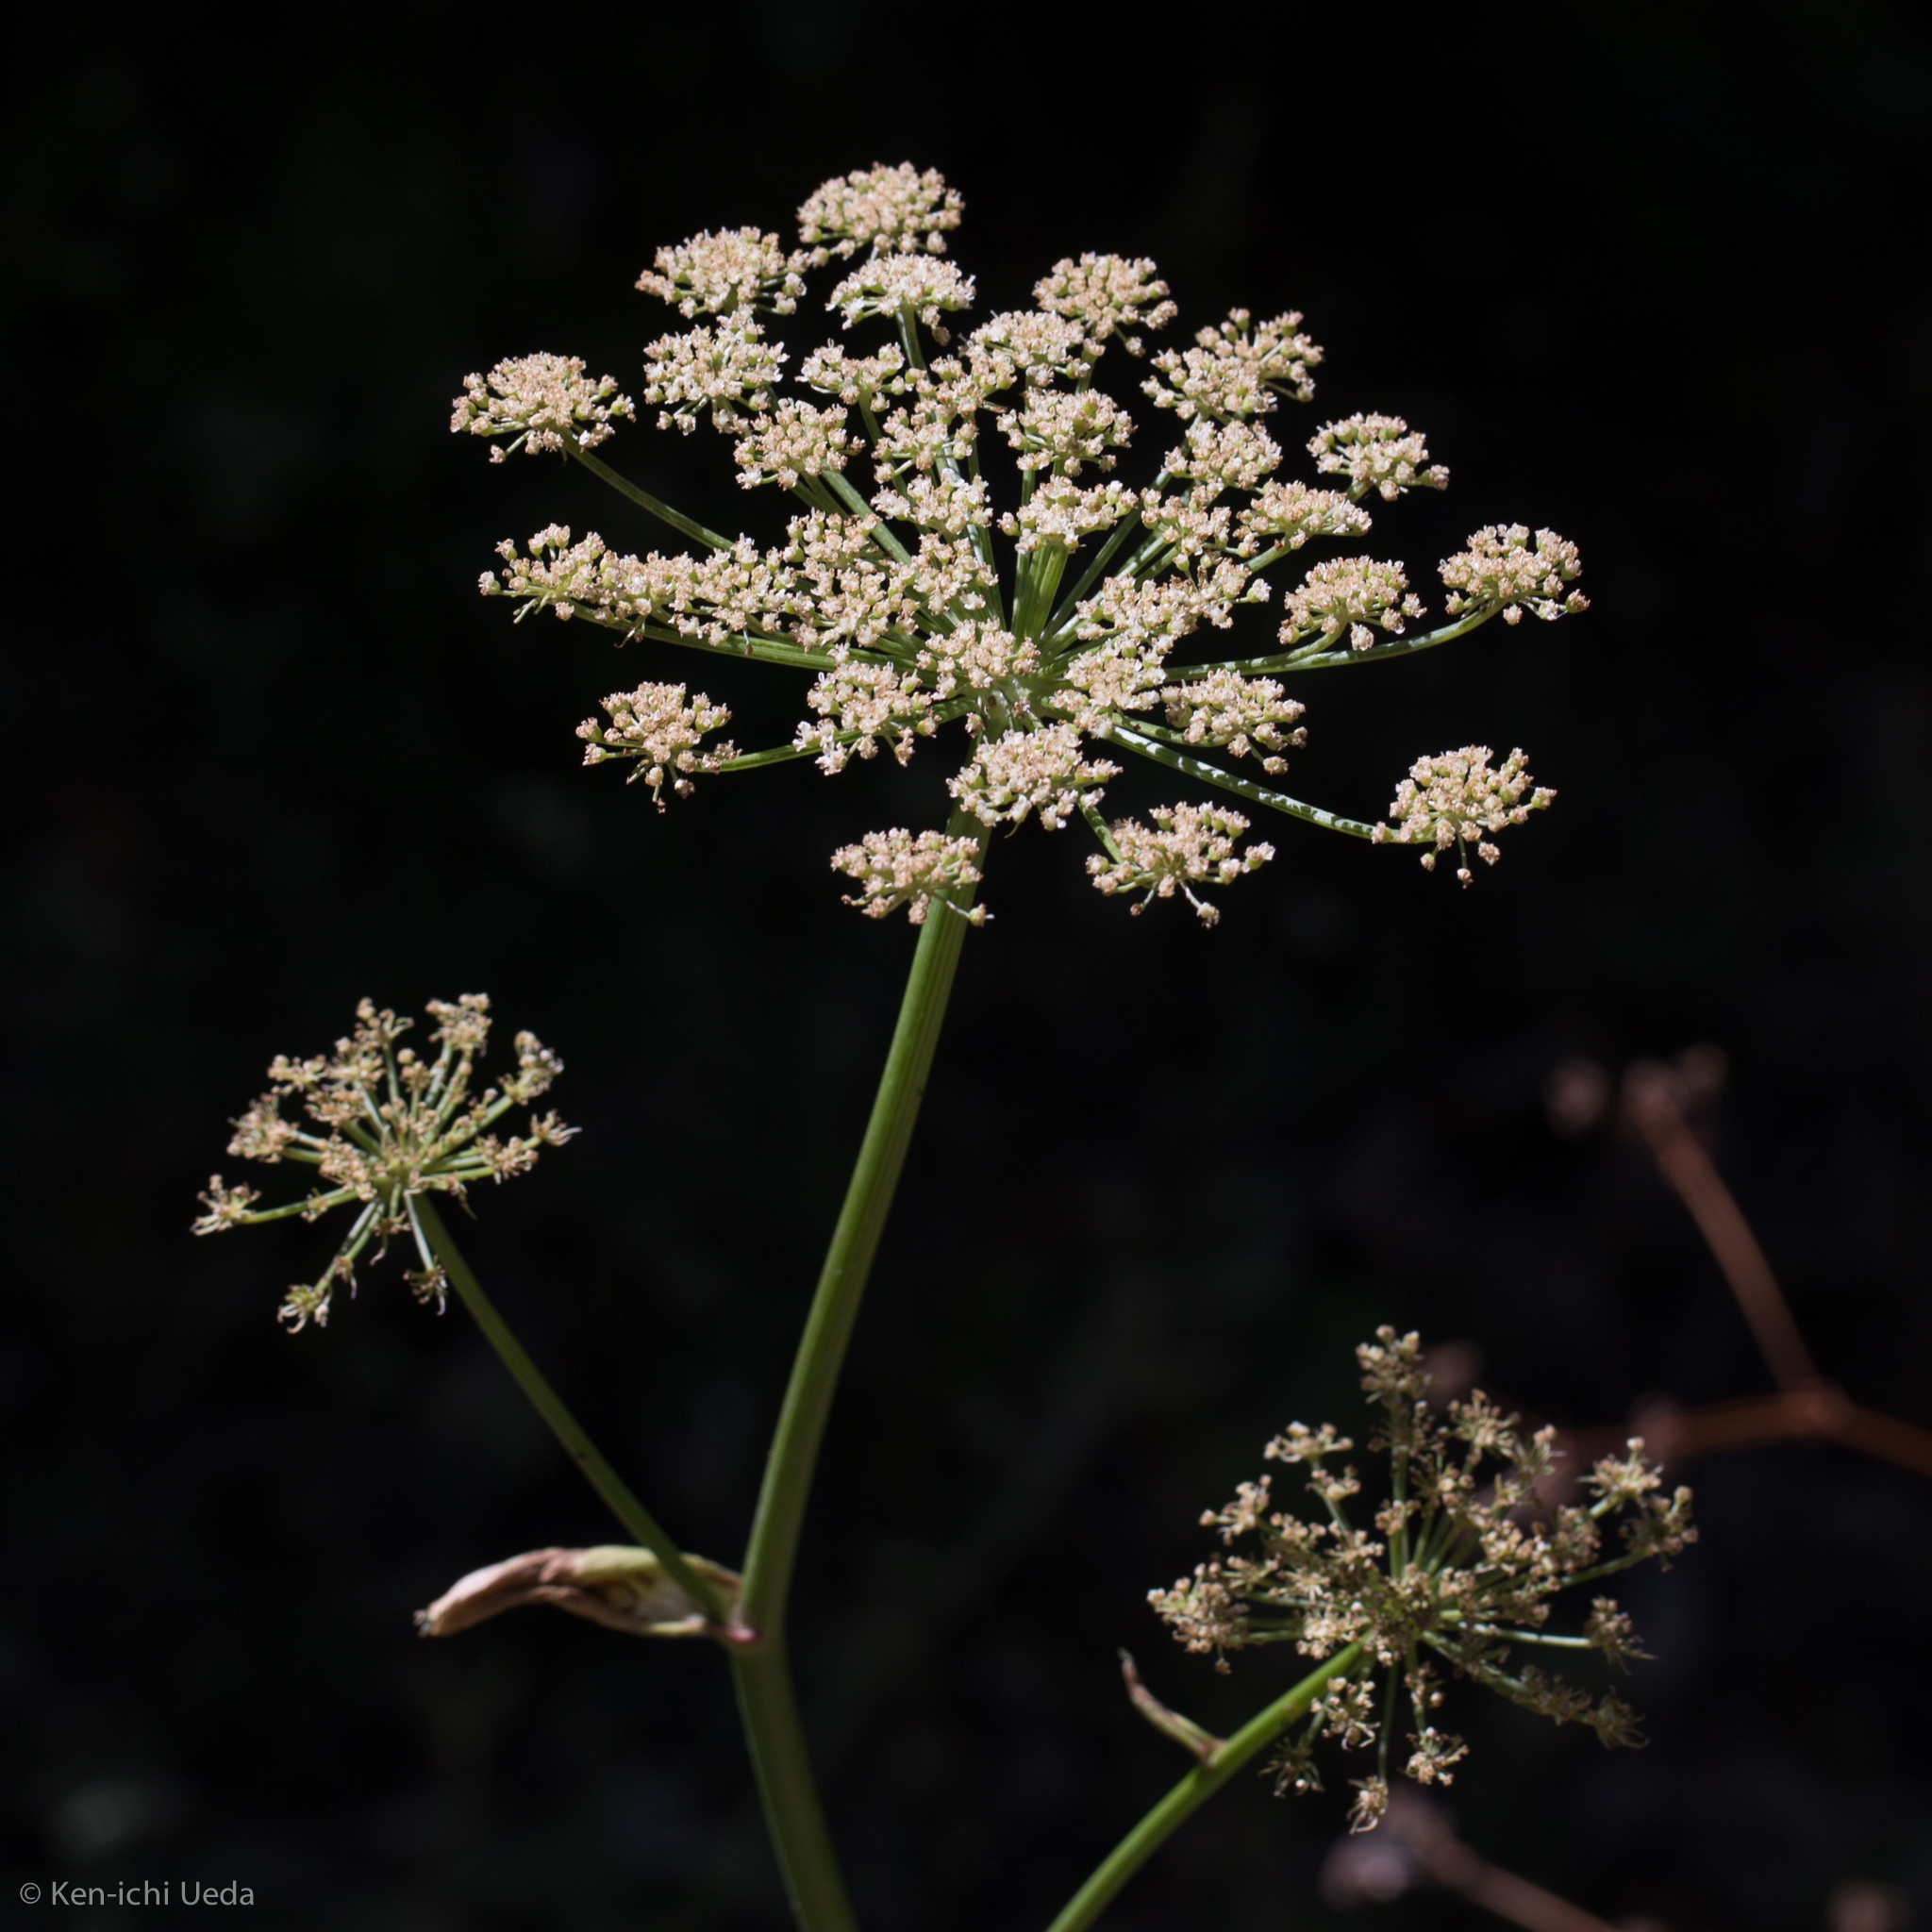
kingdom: Plantae
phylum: Tracheophyta
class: Magnoliopsida
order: Apiales
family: Apiaceae
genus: Angelica
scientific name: Angelica californica
